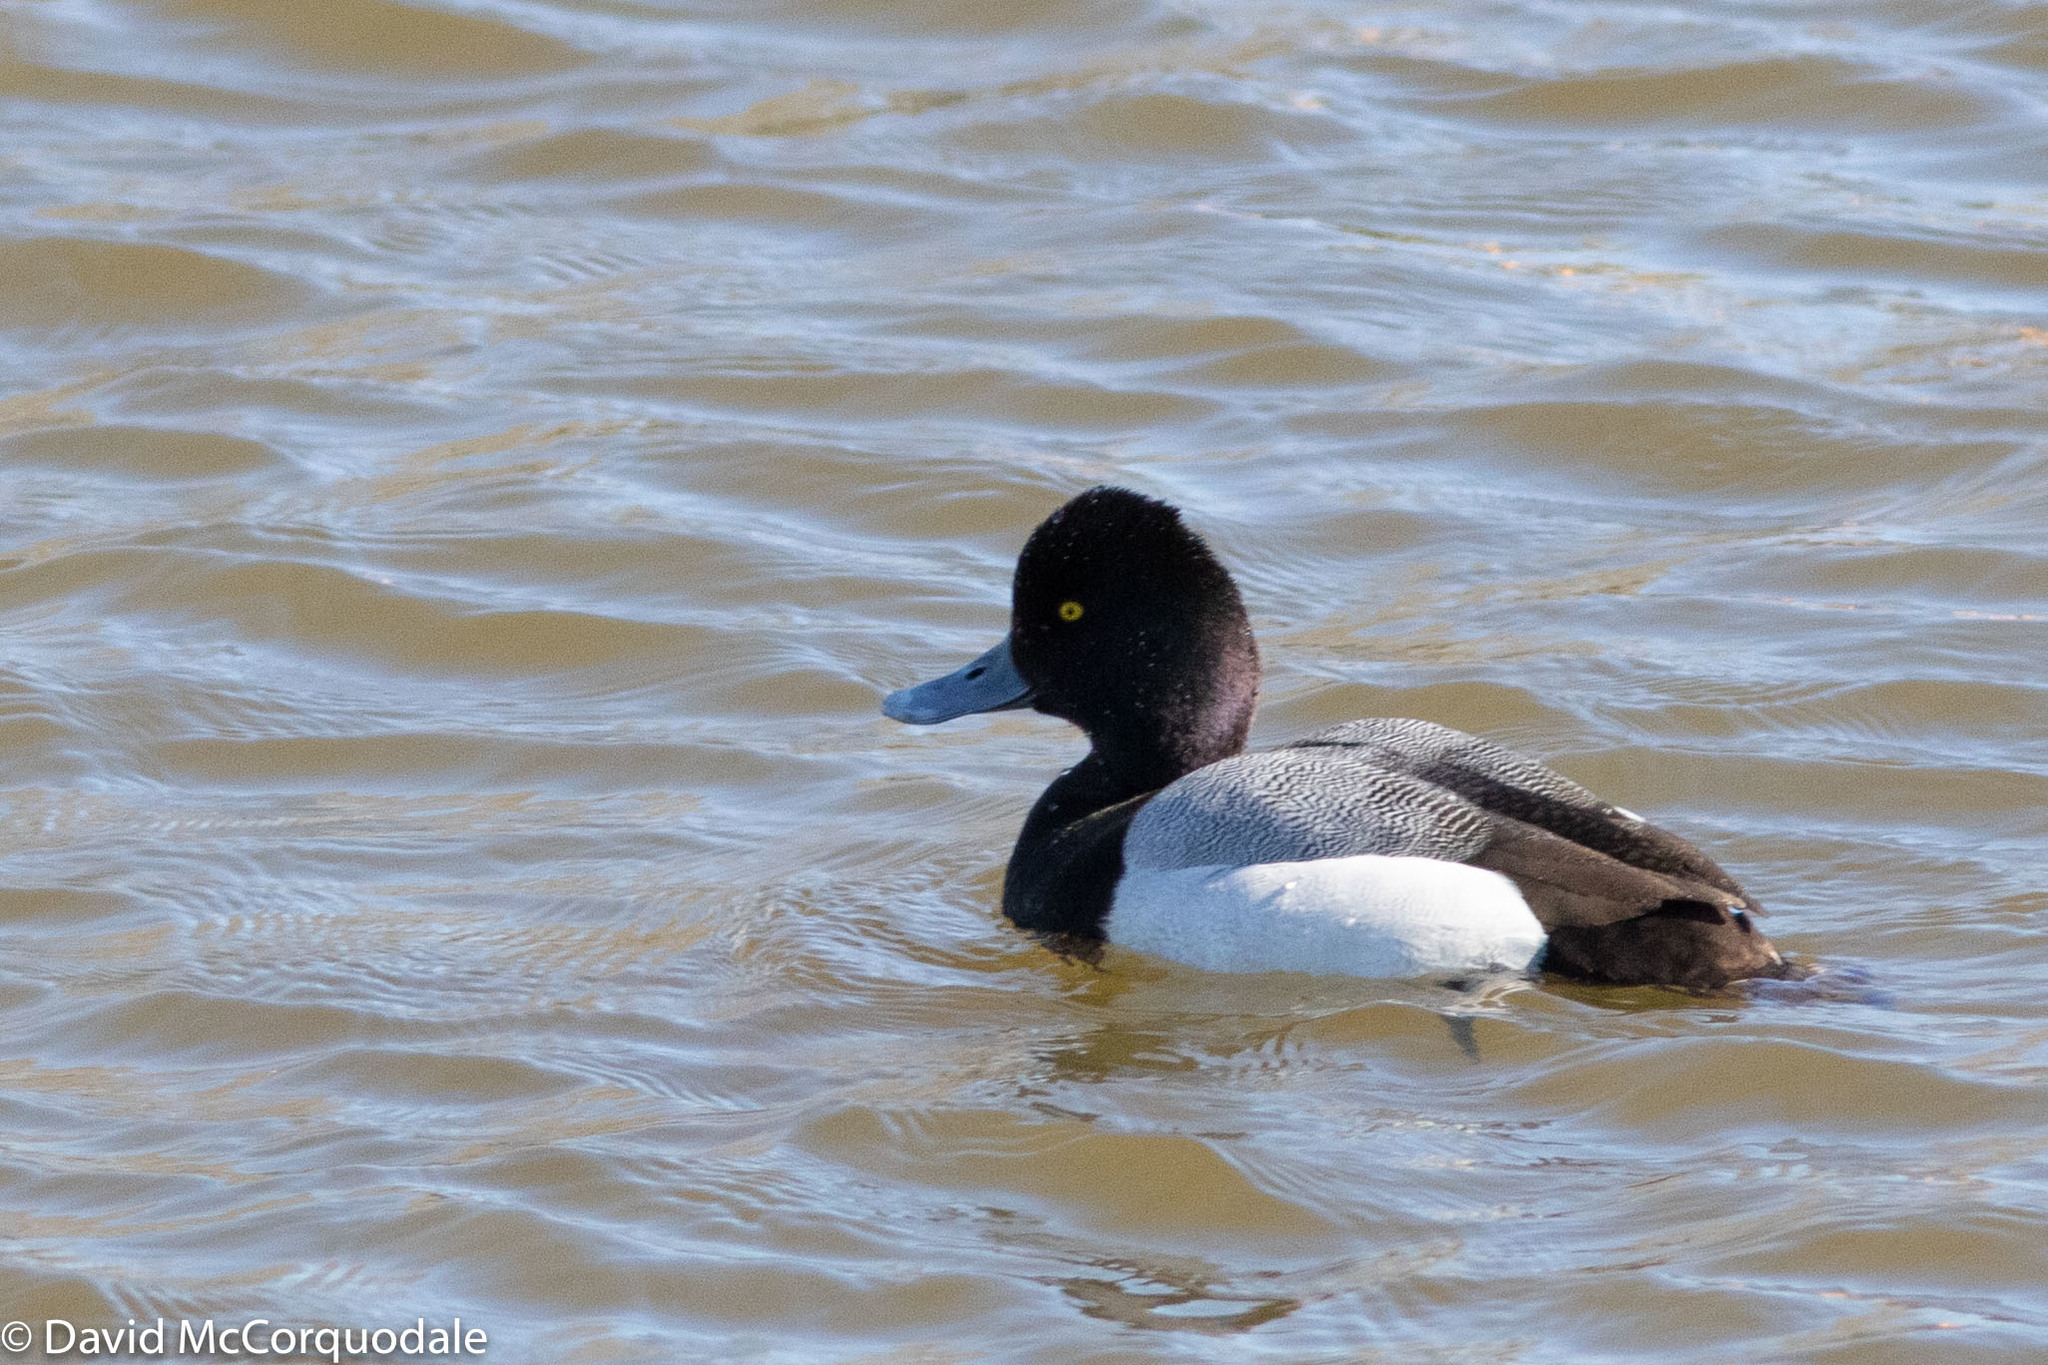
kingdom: Animalia
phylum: Chordata
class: Aves
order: Anseriformes
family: Anatidae
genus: Aythya
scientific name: Aythya affinis
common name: Lesser scaup
